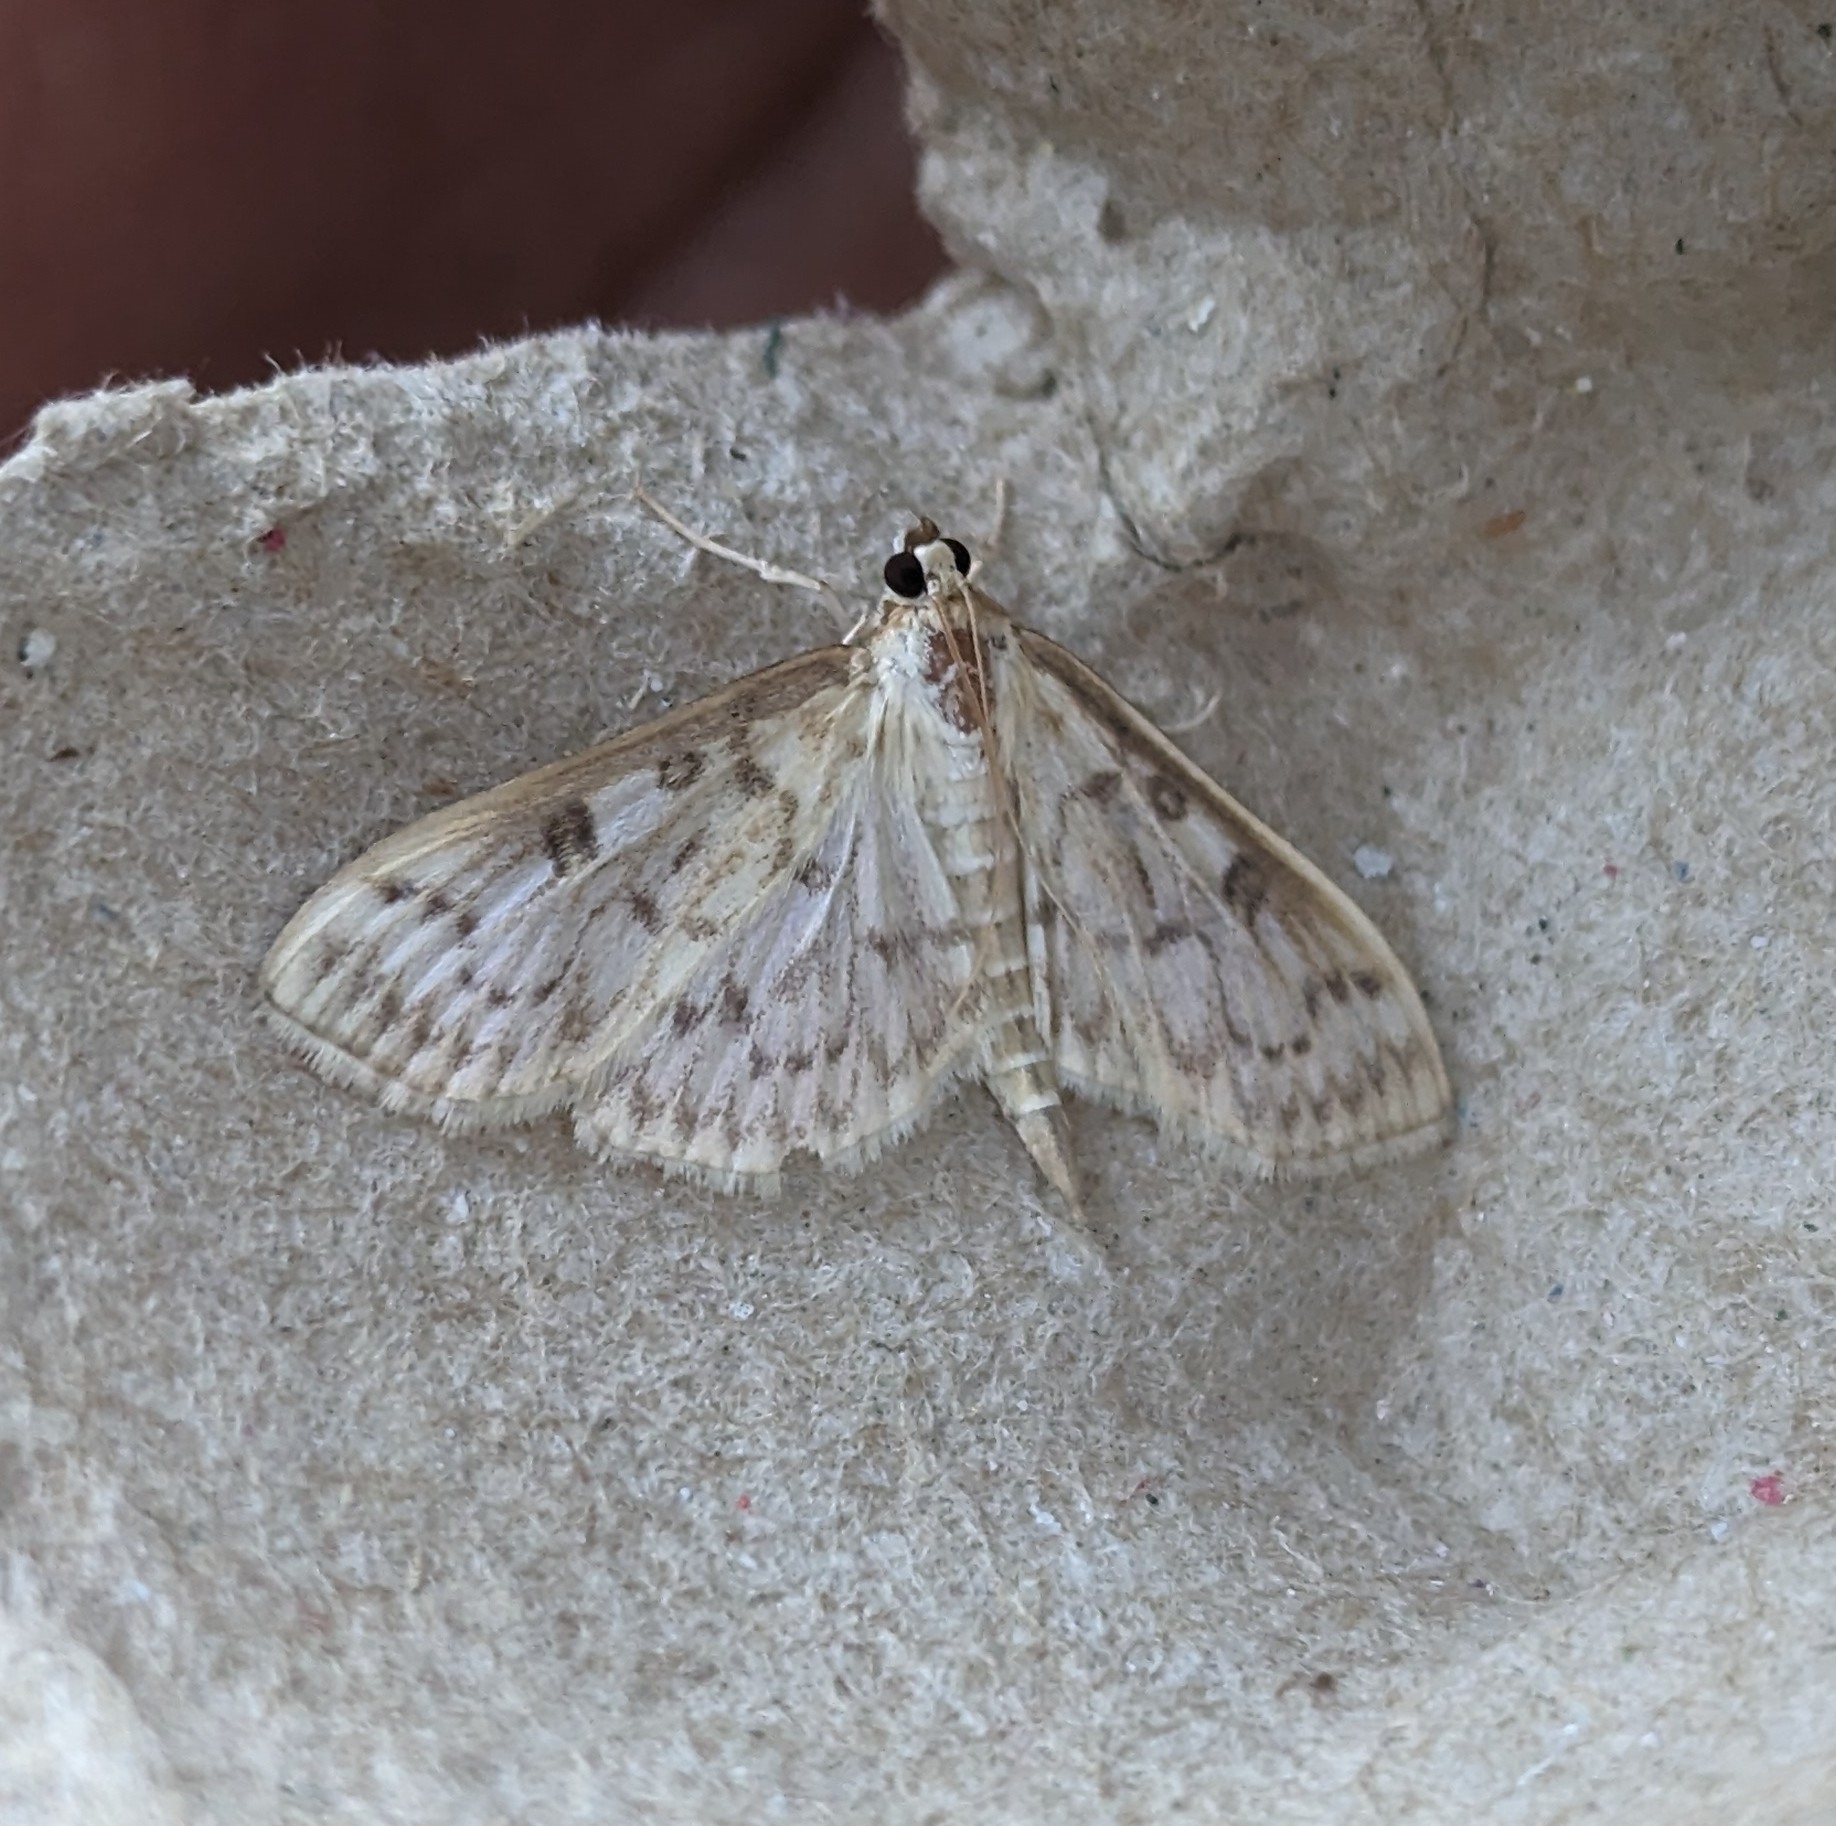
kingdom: Animalia
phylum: Arthropoda
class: Insecta
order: Lepidoptera
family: Crambidae
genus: Herpetogramma
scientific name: Herpetogramma aquilonalis
